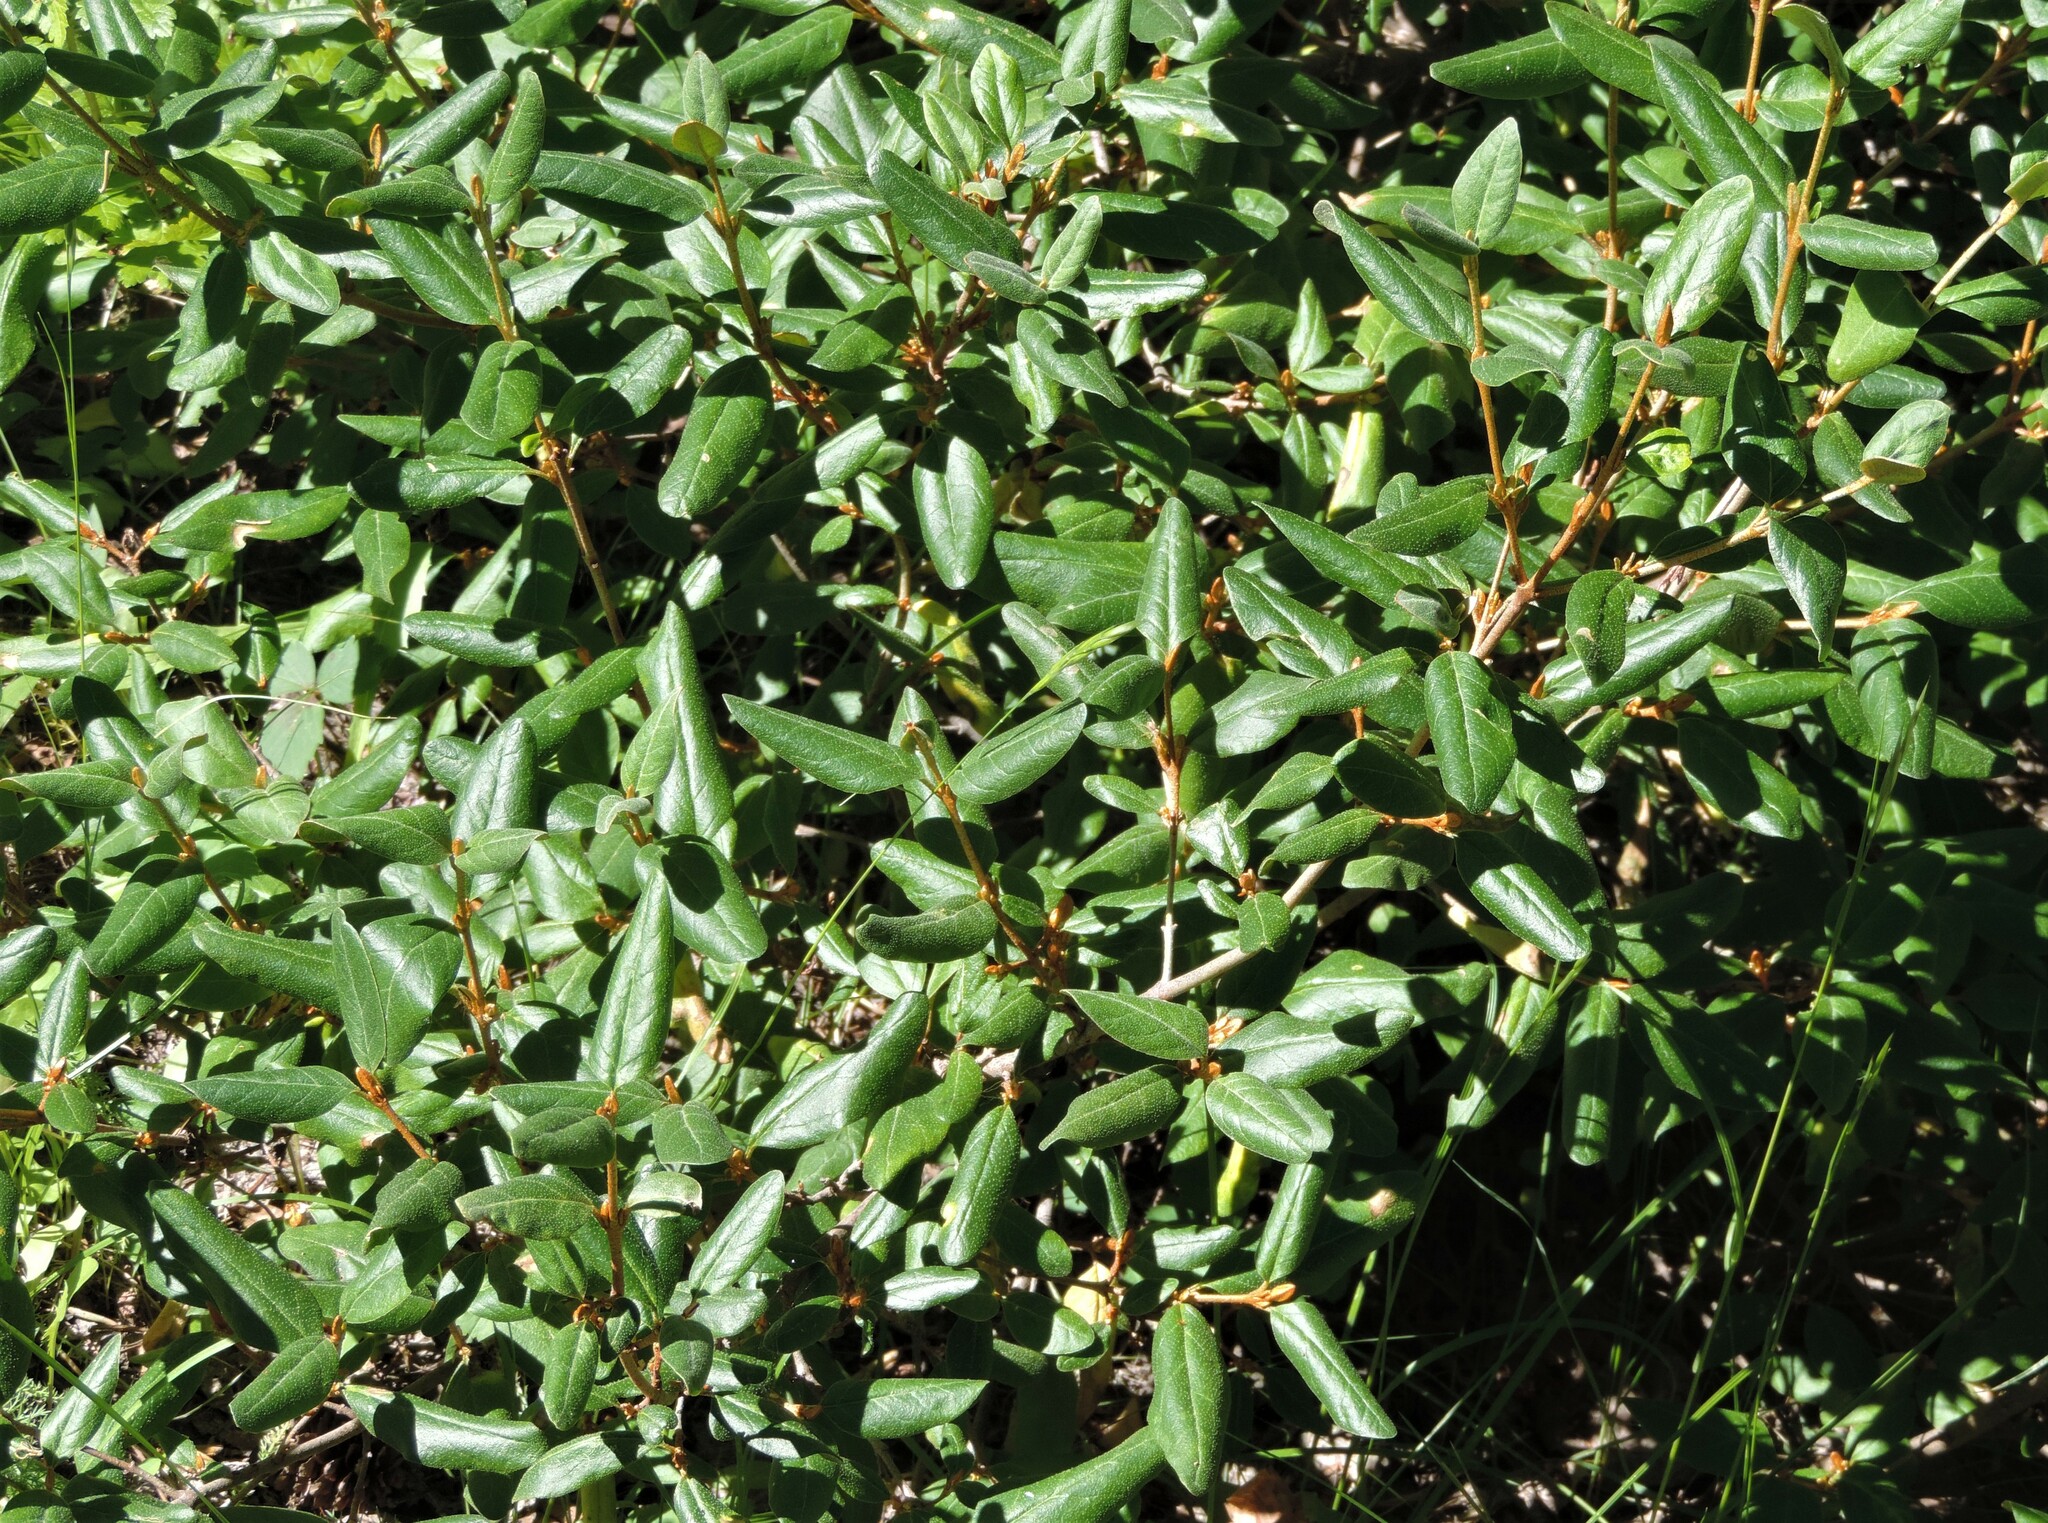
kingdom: Plantae
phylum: Tracheophyta
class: Magnoliopsida
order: Rosales
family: Elaeagnaceae
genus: Shepherdia
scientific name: Shepherdia canadensis
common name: Soapberry
